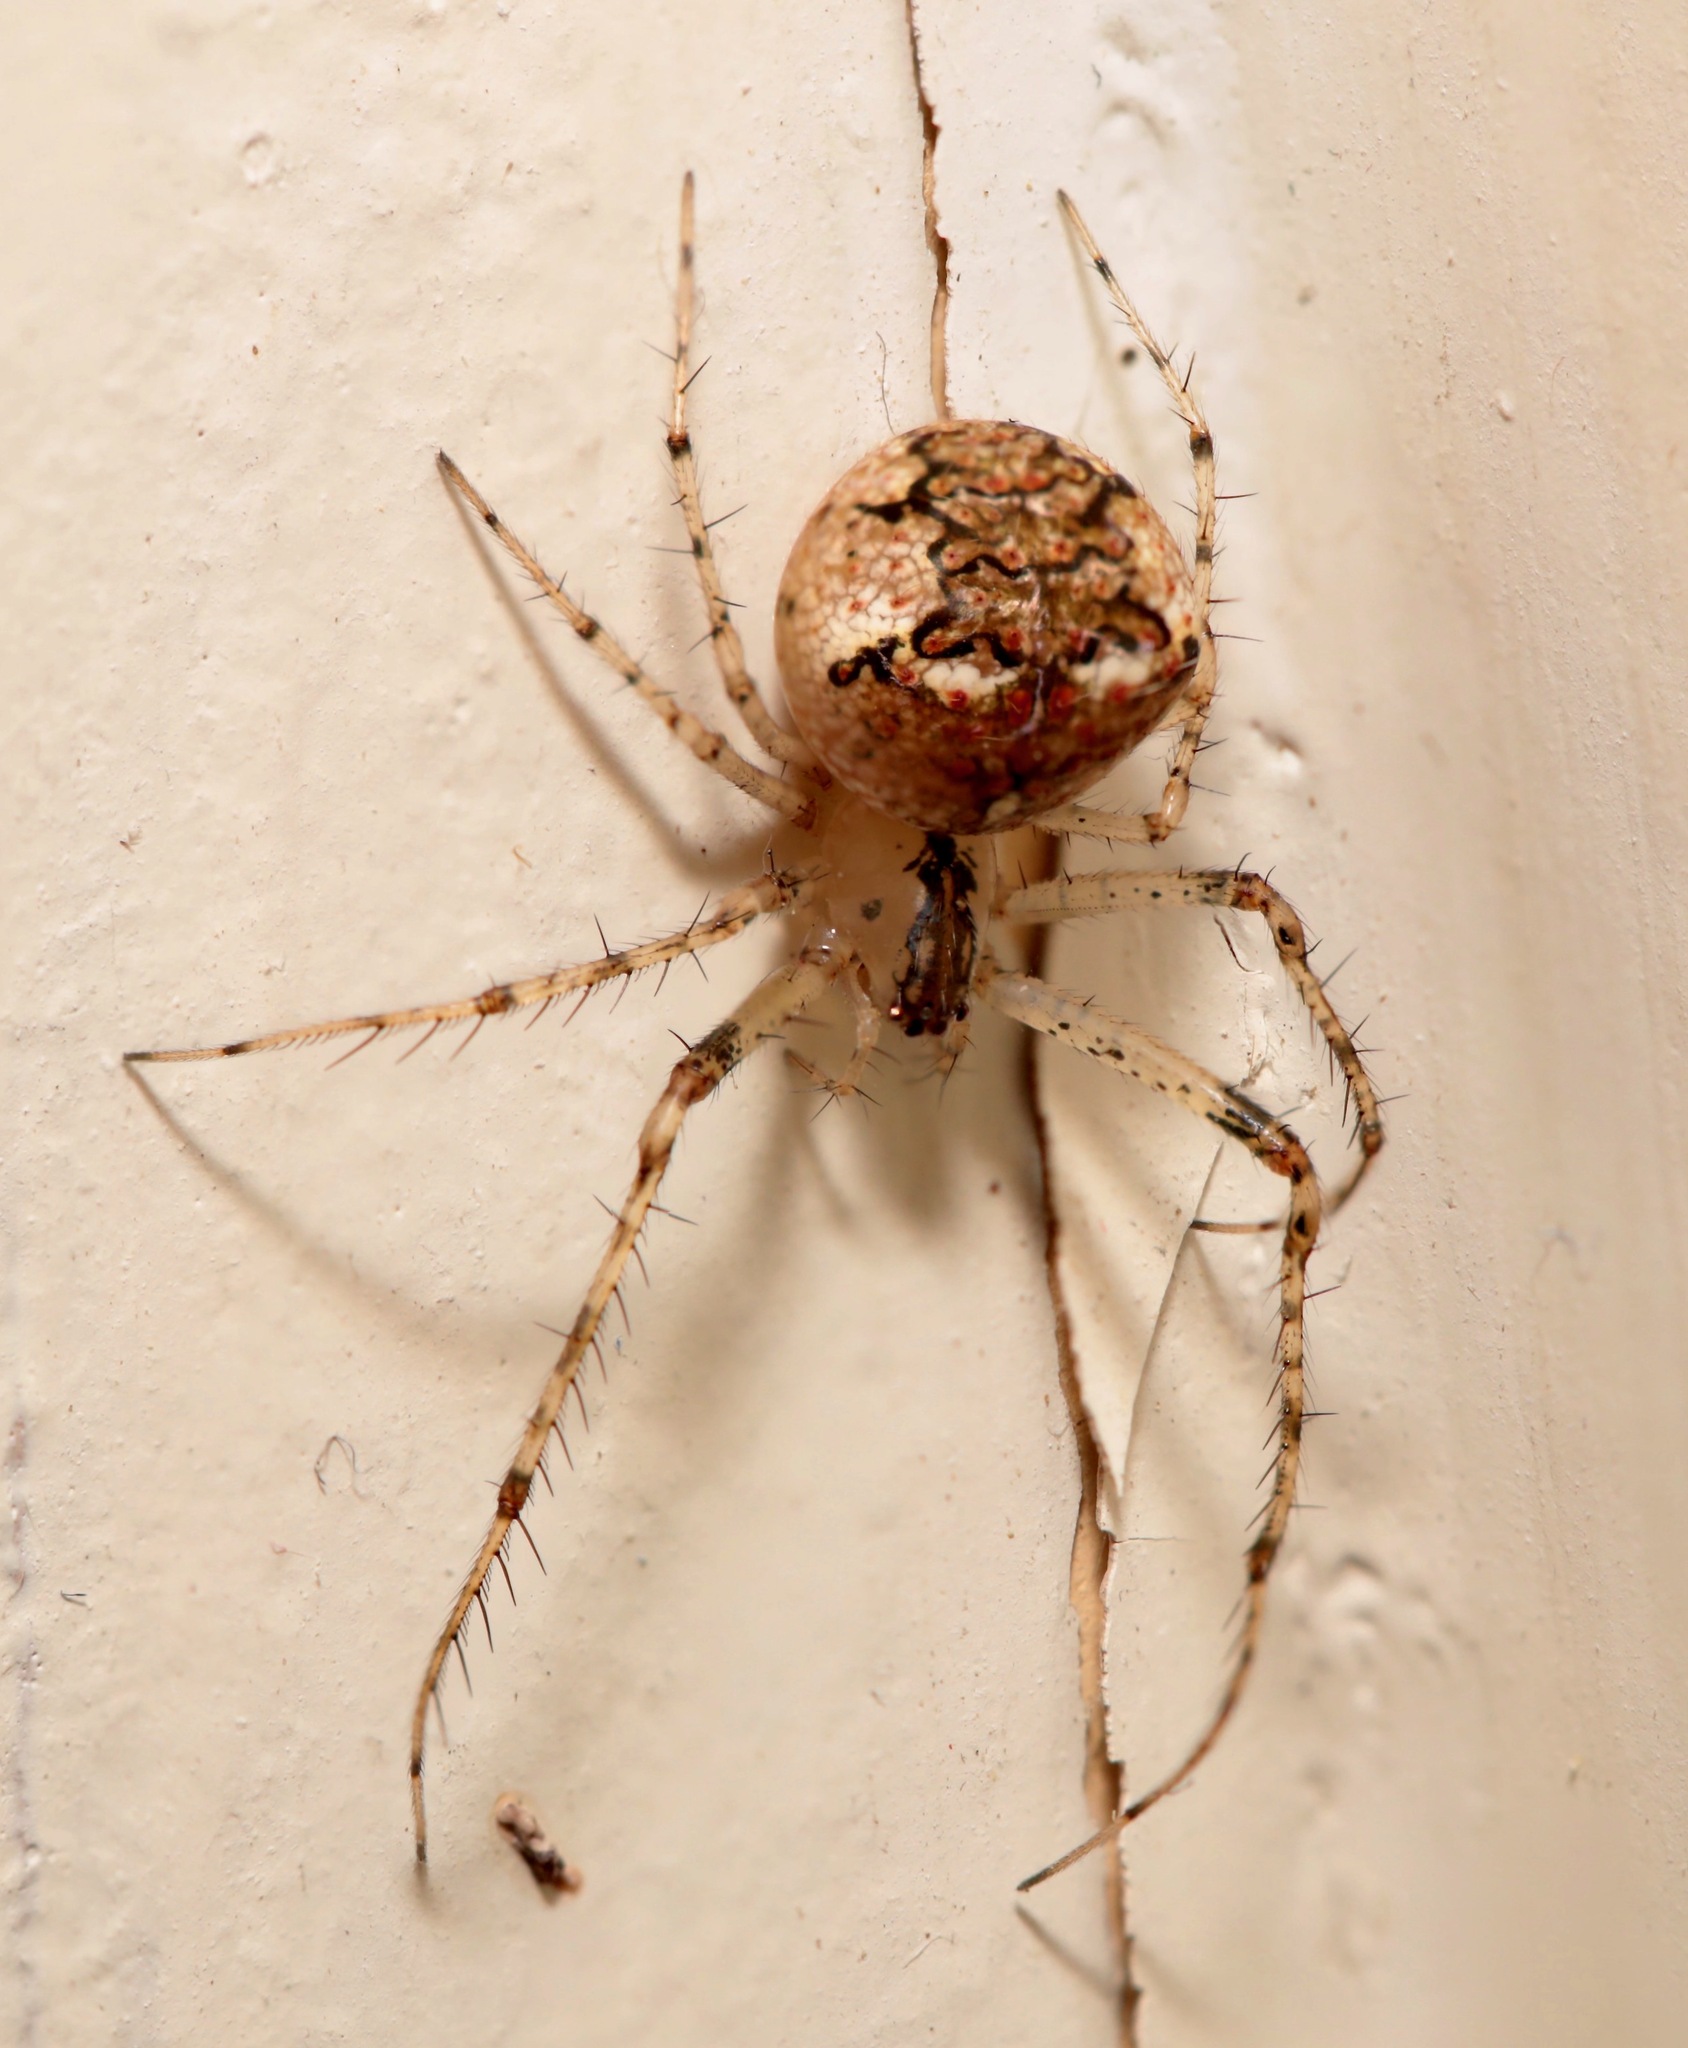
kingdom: Animalia
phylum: Arthropoda
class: Arachnida
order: Araneae
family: Mimetidae
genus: Mimetus
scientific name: Mimetus puritanus
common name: Common pirate spider
